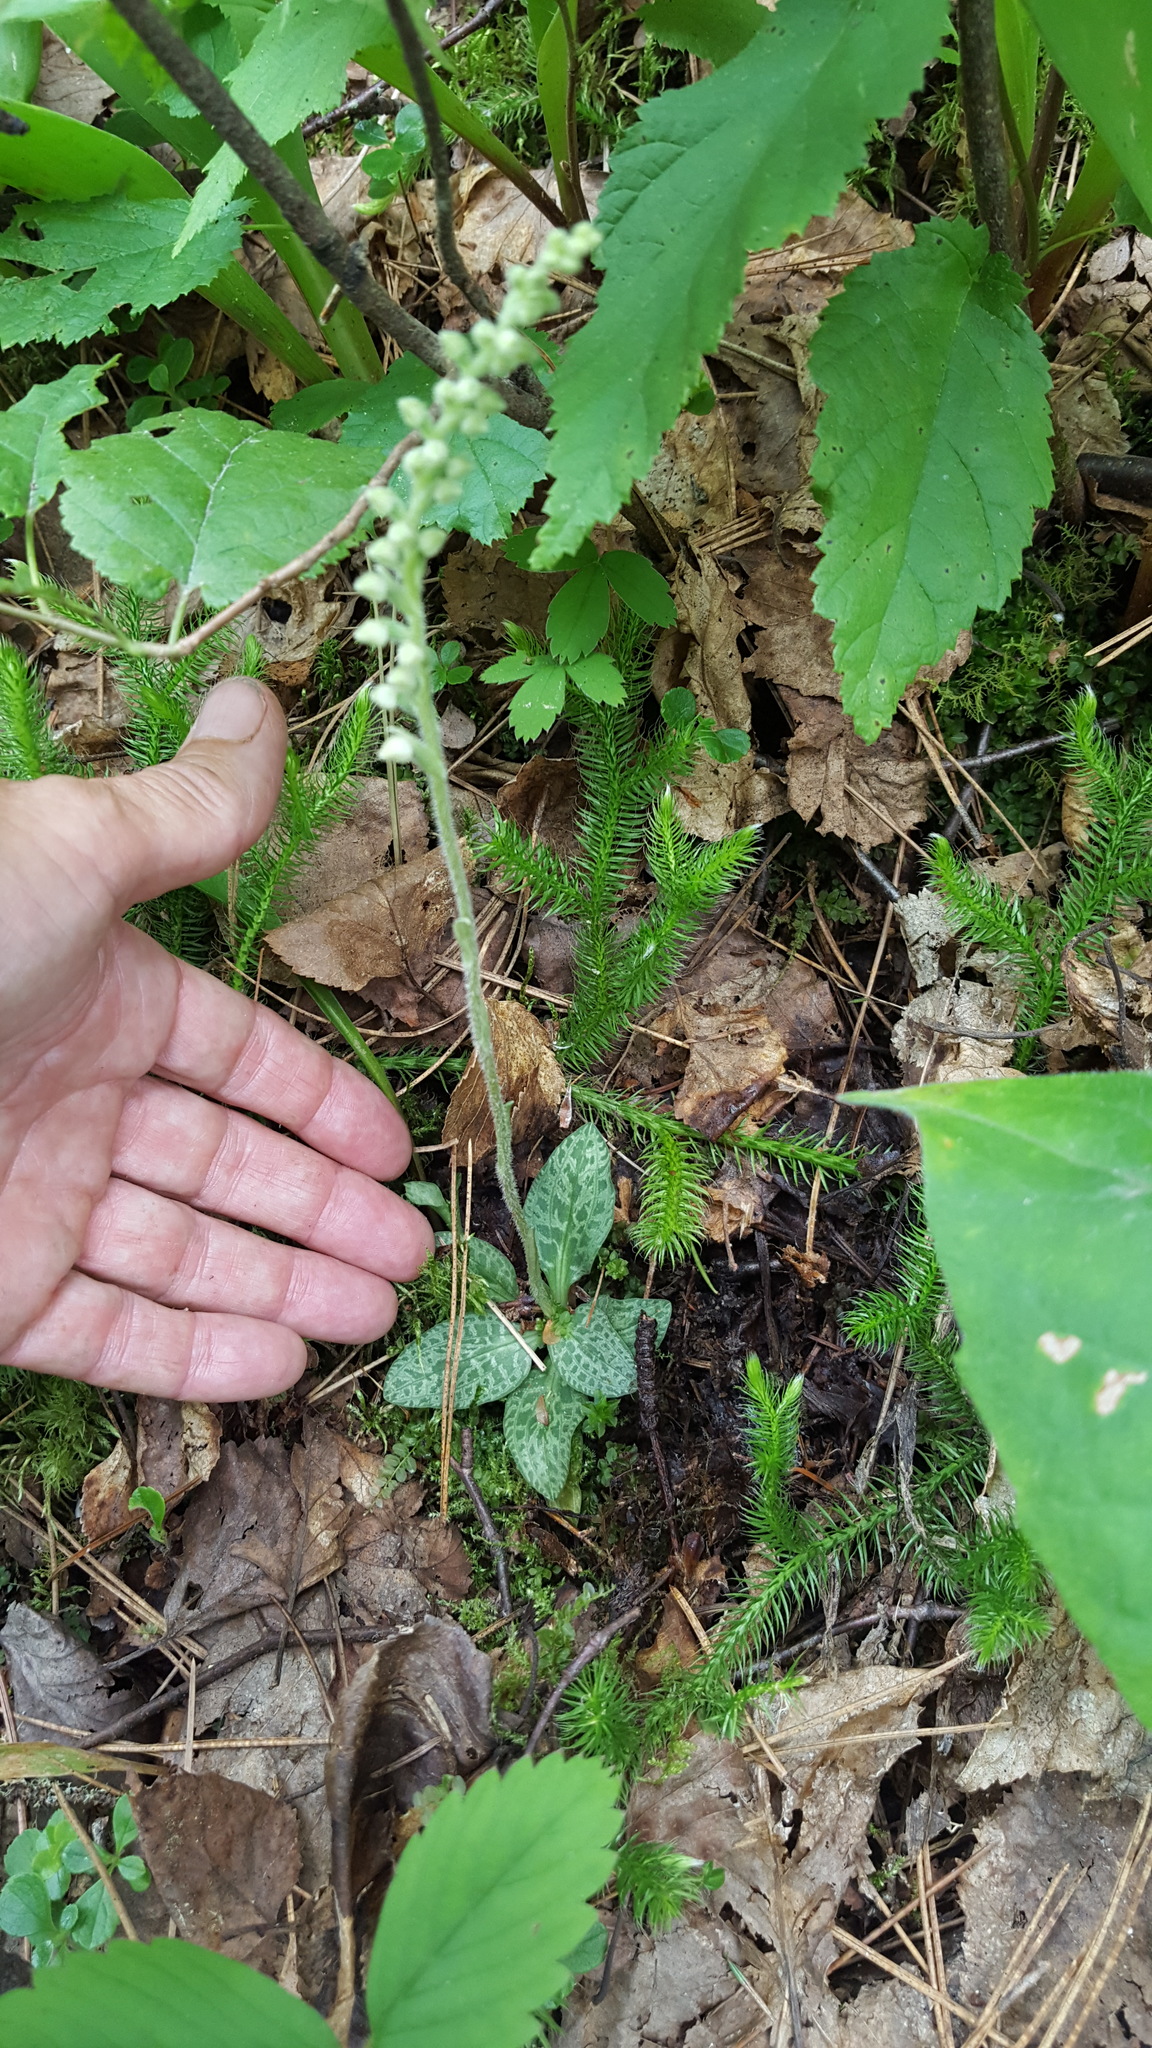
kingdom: Plantae
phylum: Tracheophyta
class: Liliopsida
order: Asparagales
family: Orchidaceae
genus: Goodyera
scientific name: Goodyera repens
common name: Creeping lady's-tresses
